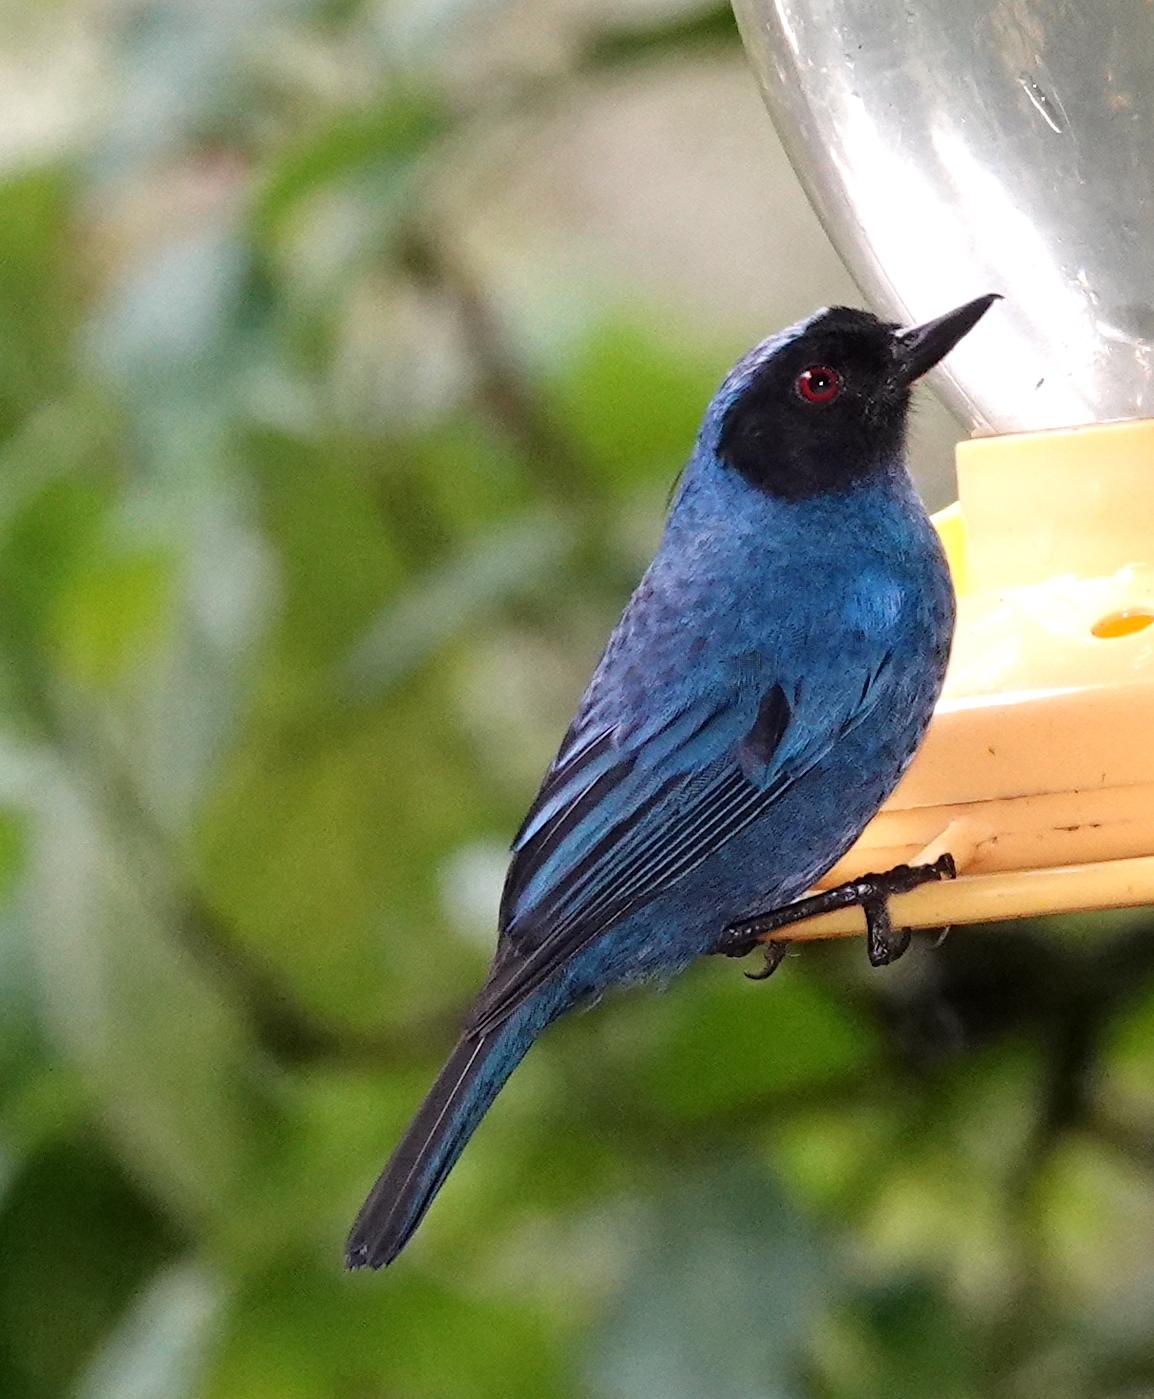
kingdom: Animalia
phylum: Chordata
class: Aves
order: Passeriformes
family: Thraupidae
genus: Diglossa
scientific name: Diglossa cyanea
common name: Masked flowerpiercer
